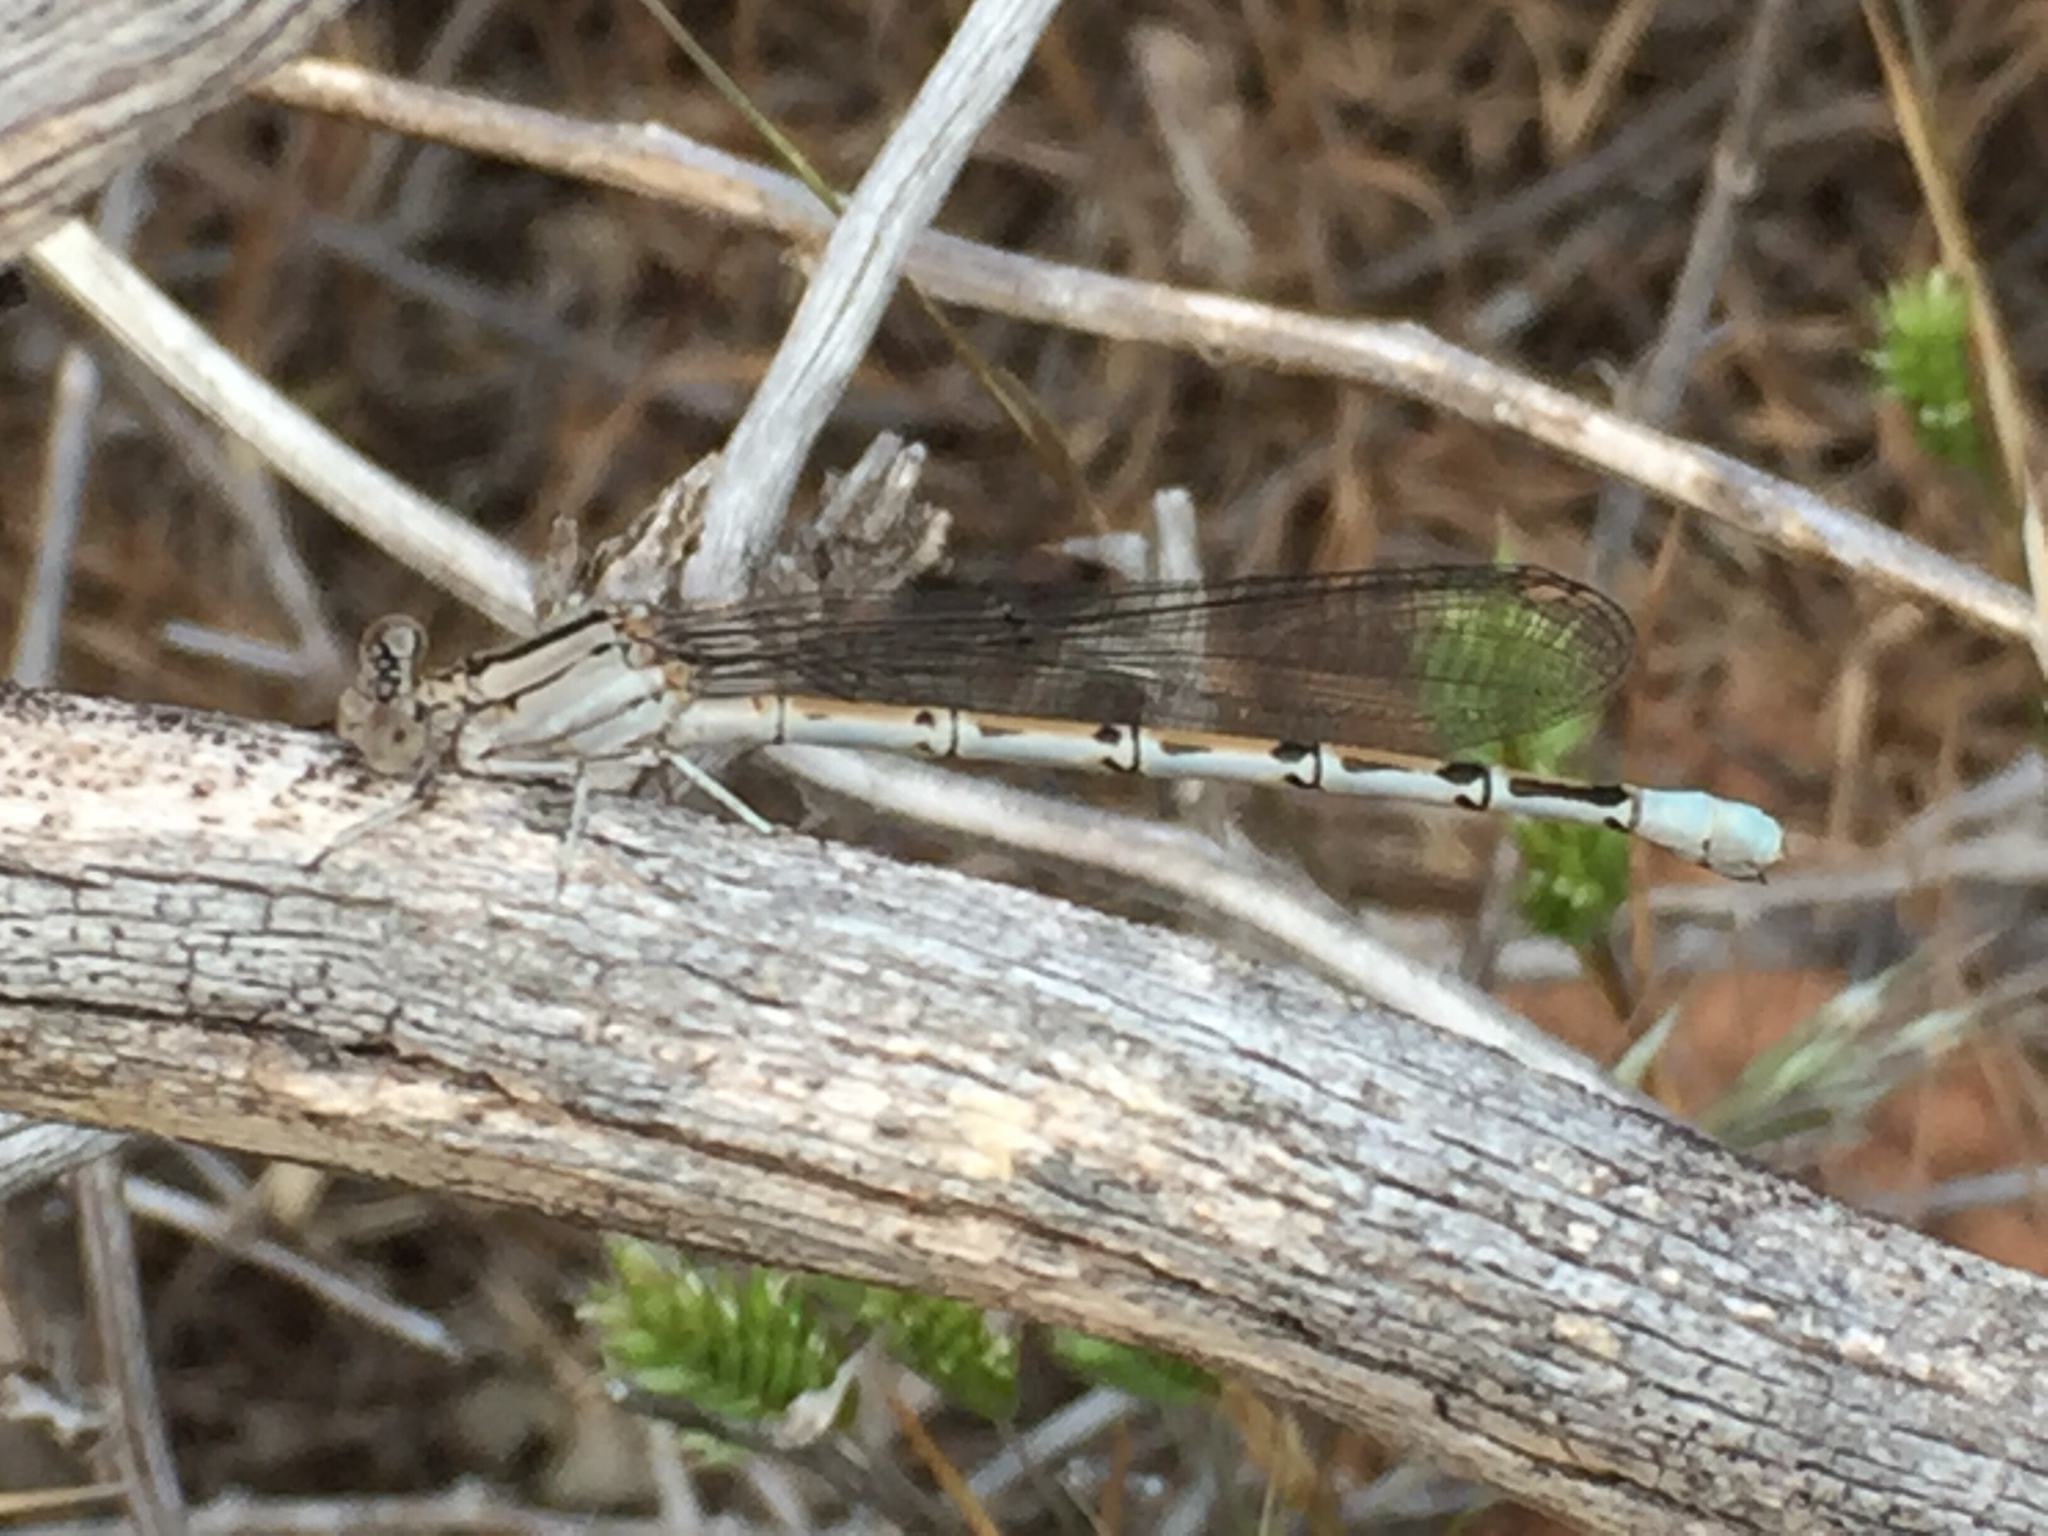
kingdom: Animalia
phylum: Arthropoda
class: Insecta
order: Odonata
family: Coenagrionidae
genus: Argia
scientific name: Argia vivida
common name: Vivid dancer
